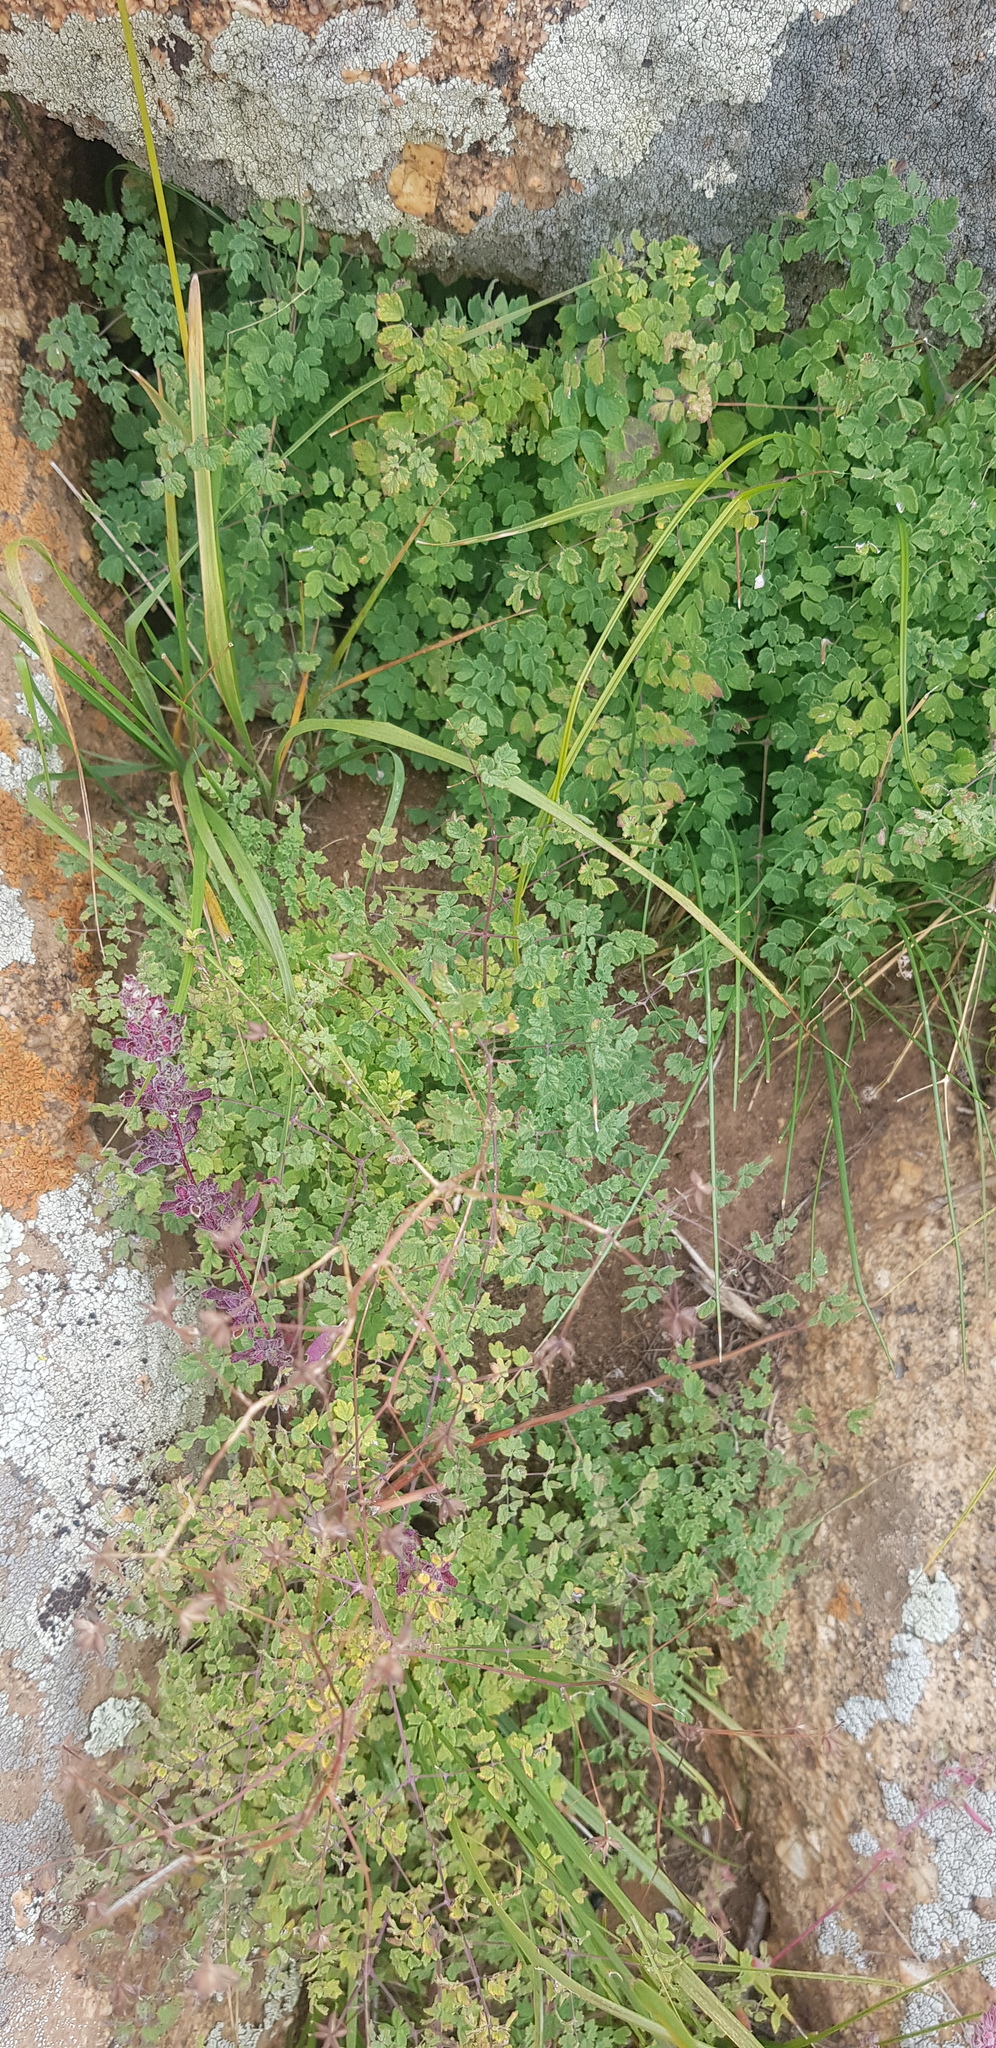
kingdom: Plantae
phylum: Tracheophyta
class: Magnoliopsida
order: Ranunculales
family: Ranunculaceae
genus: Thalictrum
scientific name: Thalictrum foetidum
